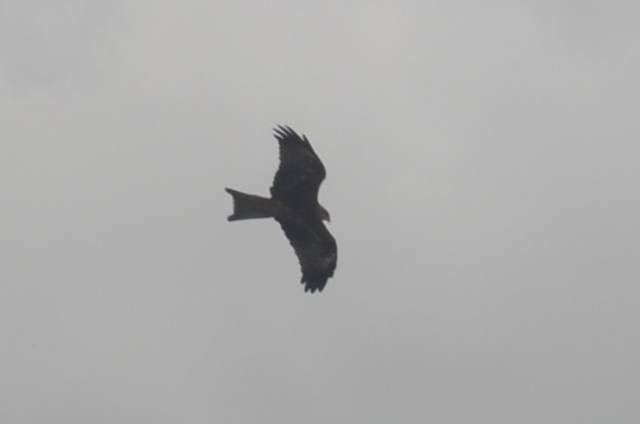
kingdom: Animalia
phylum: Chordata
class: Aves
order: Accipitriformes
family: Accipitridae
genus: Milvus
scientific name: Milvus migrans
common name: Black kite
